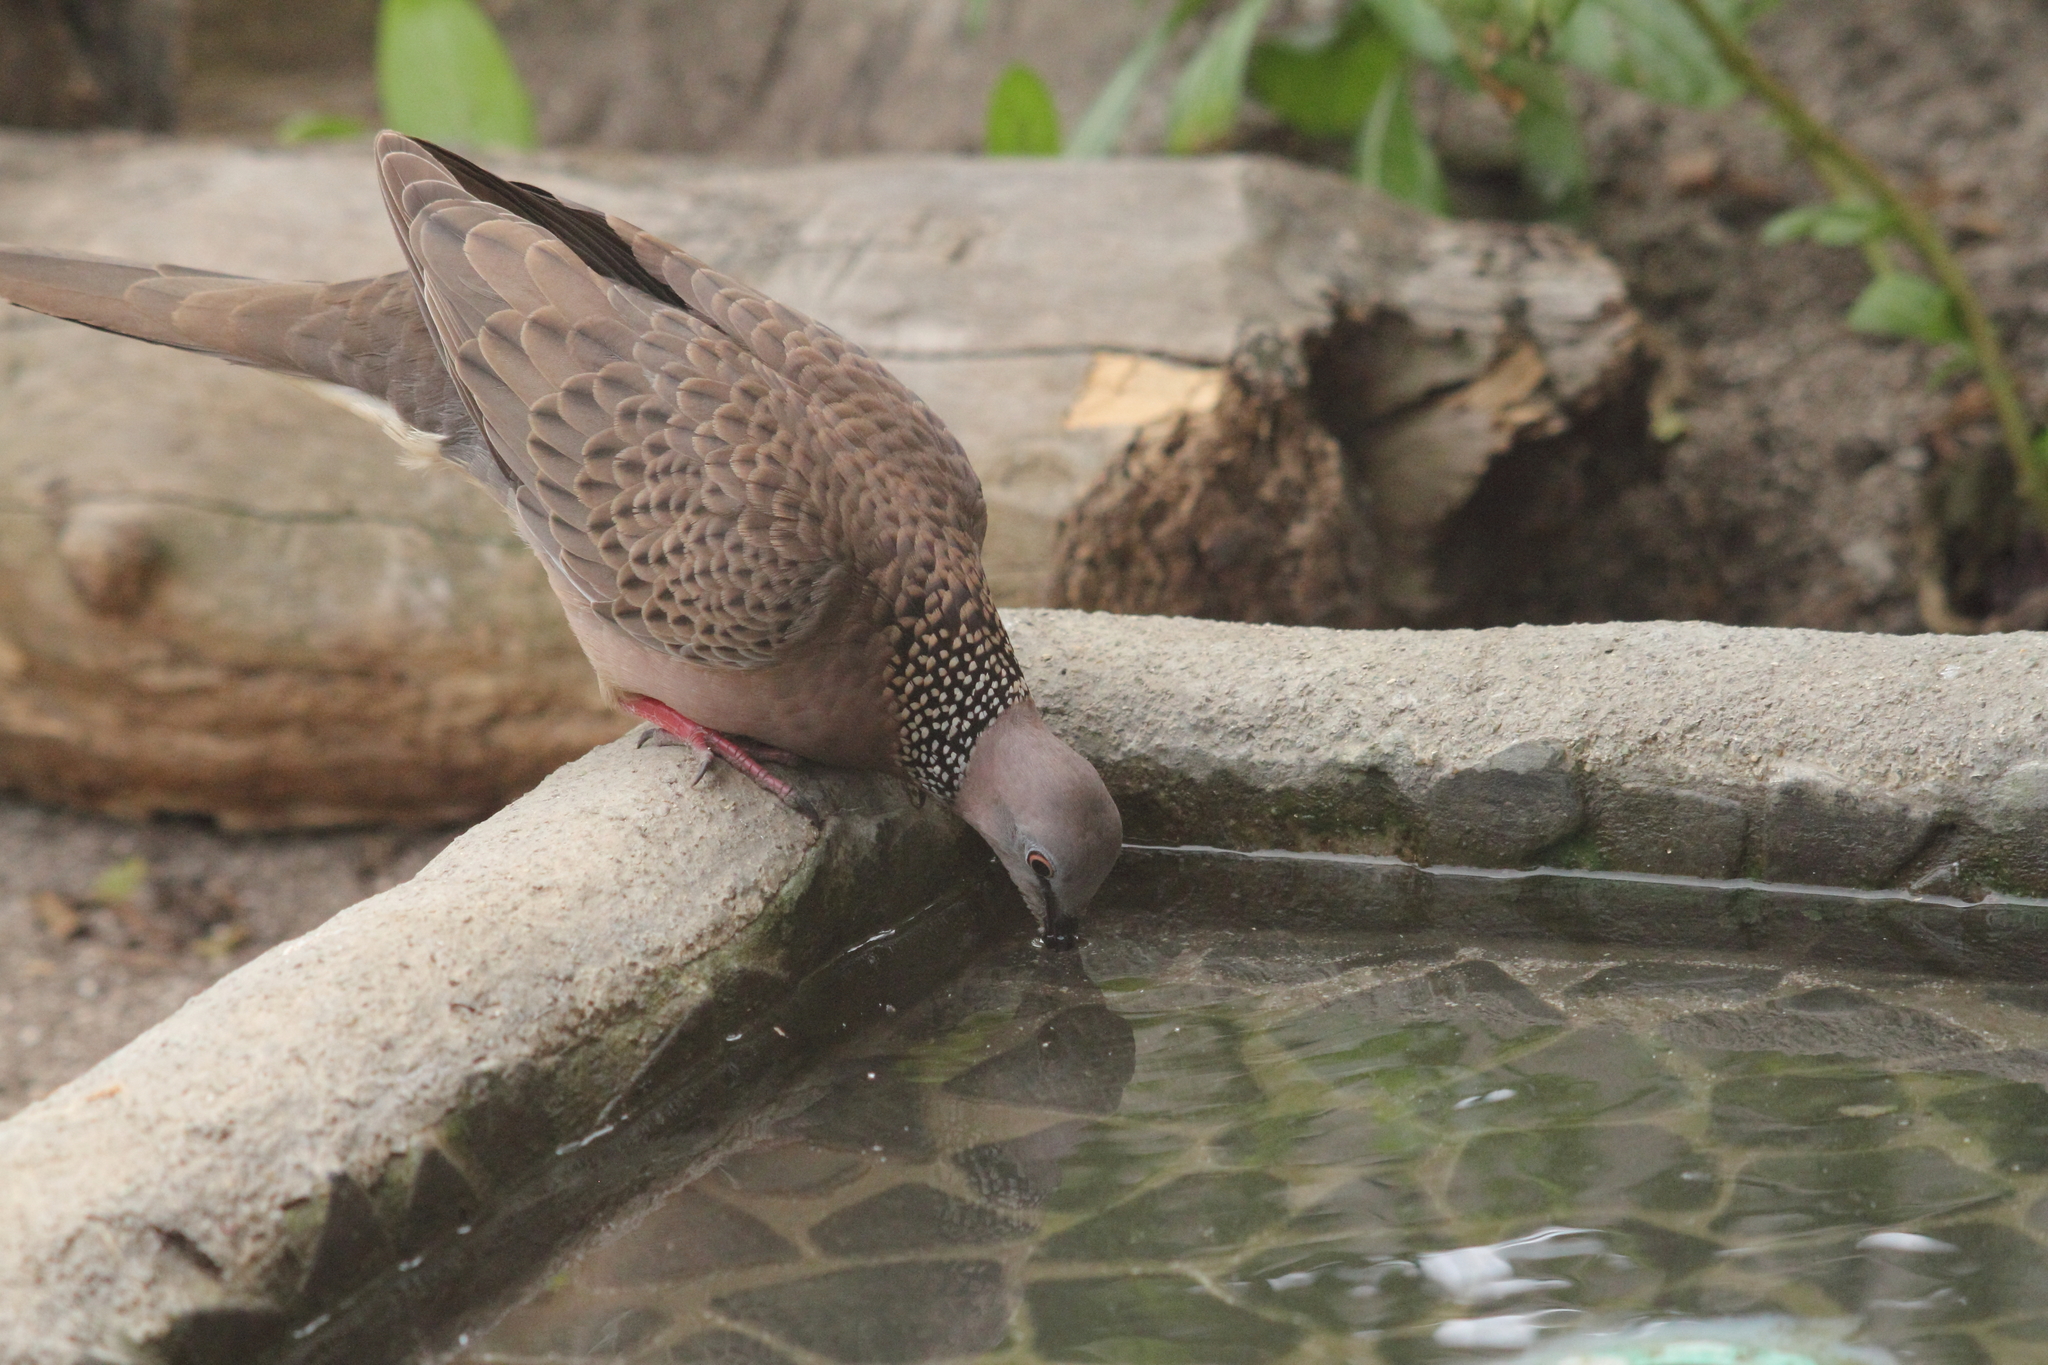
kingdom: Animalia
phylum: Chordata
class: Aves
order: Columbiformes
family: Columbidae
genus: Spilopelia
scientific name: Spilopelia chinensis
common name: Spotted dove
